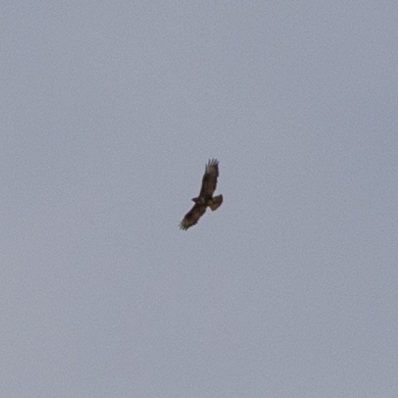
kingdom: Animalia
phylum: Chordata
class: Aves
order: Accipitriformes
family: Accipitridae
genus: Buteo
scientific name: Buteo buteo
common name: Common buzzard
